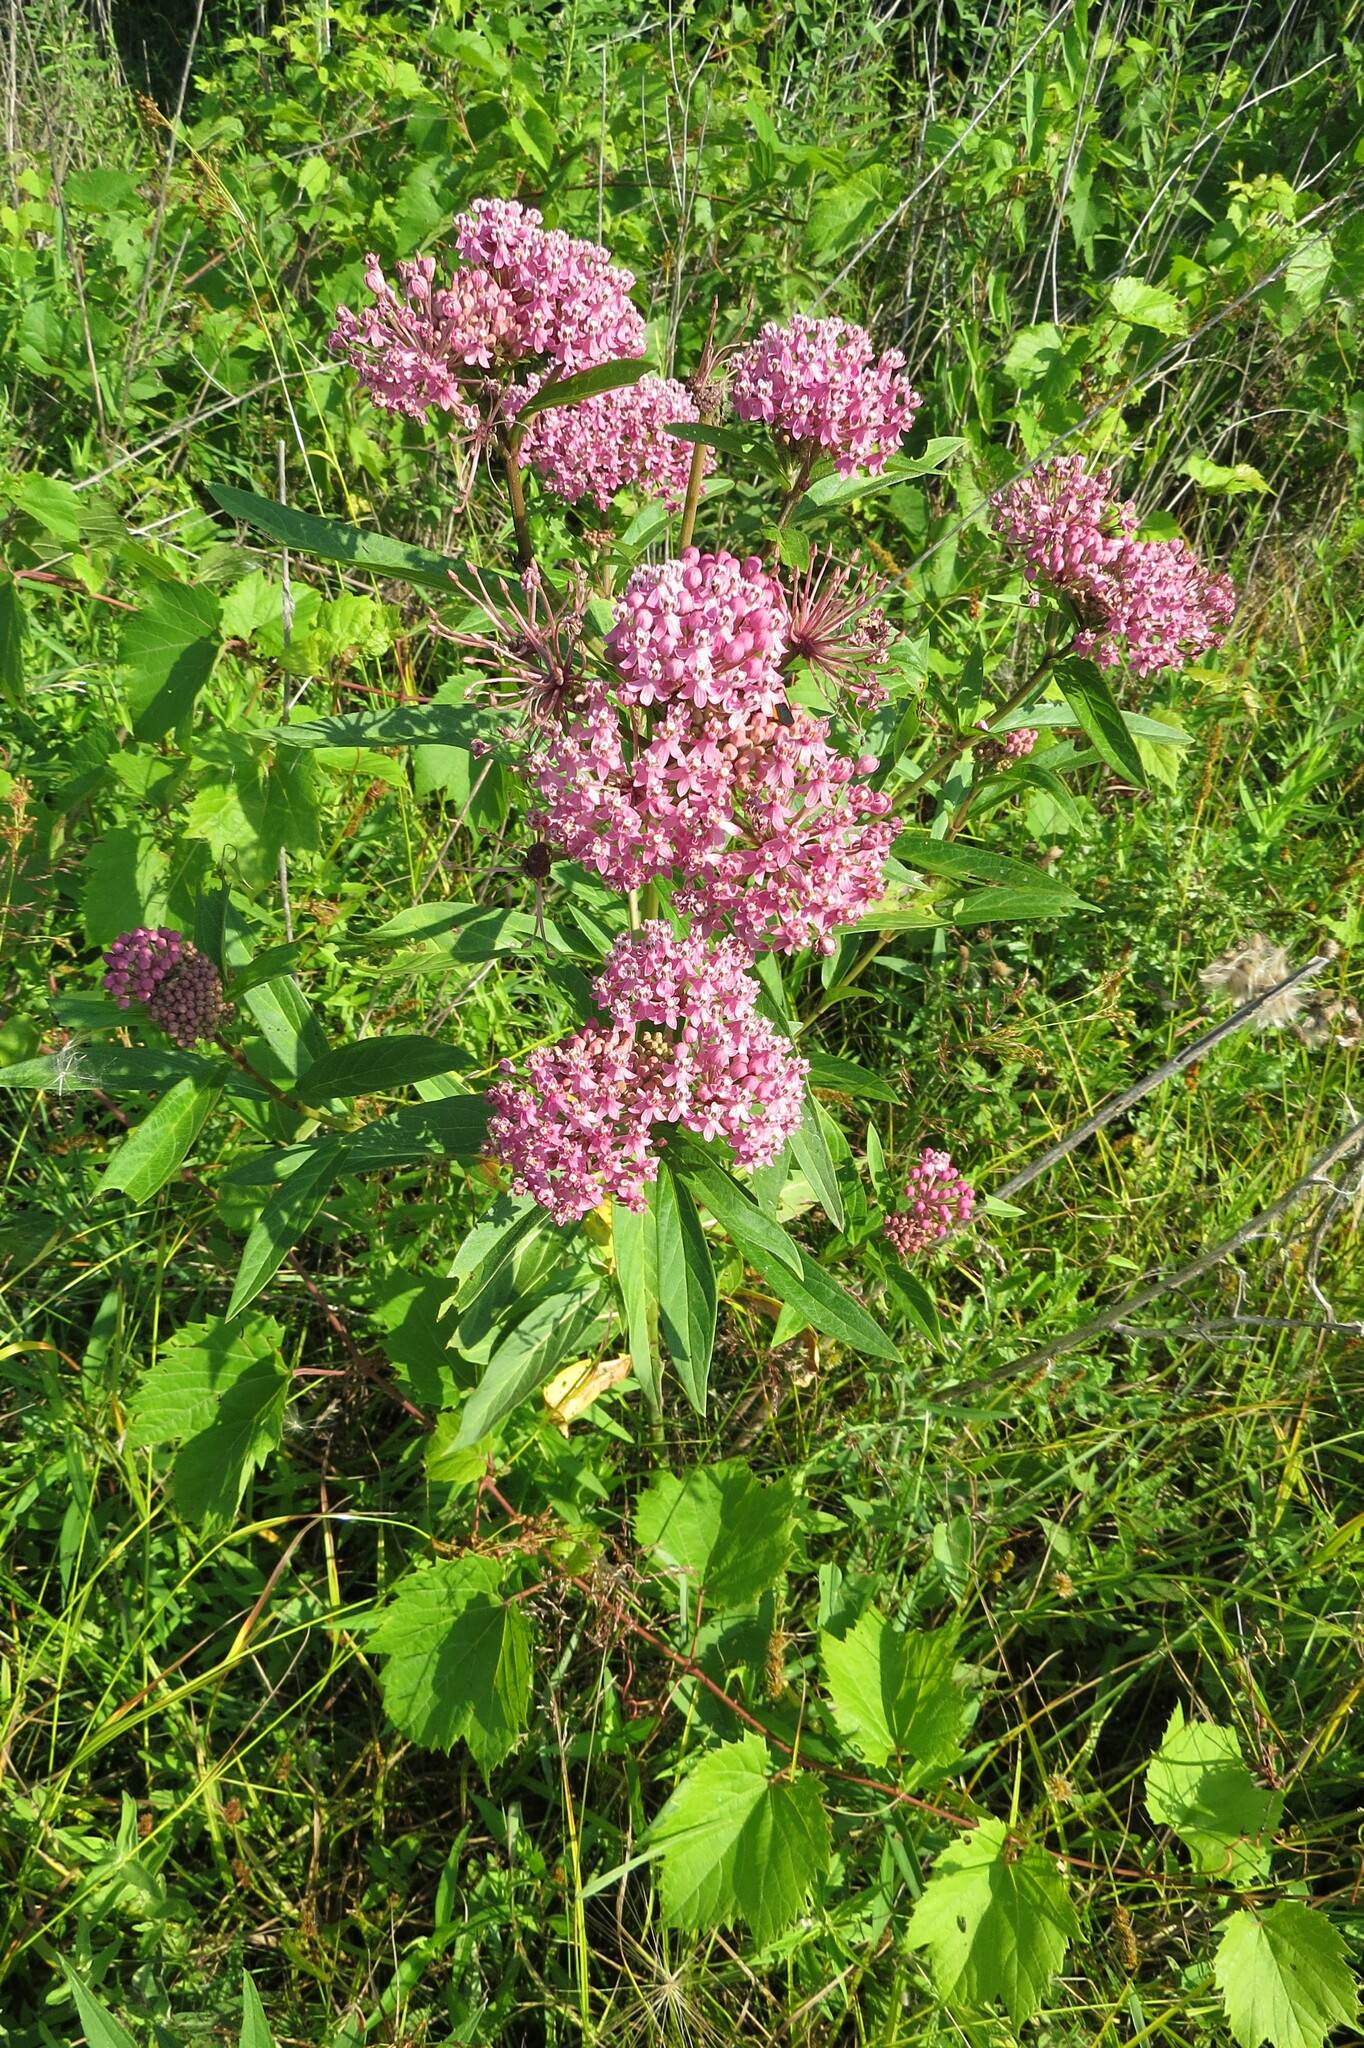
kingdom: Plantae
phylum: Tracheophyta
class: Magnoliopsida
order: Gentianales
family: Apocynaceae
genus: Asclepias
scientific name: Asclepias incarnata
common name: Swamp milkweed
